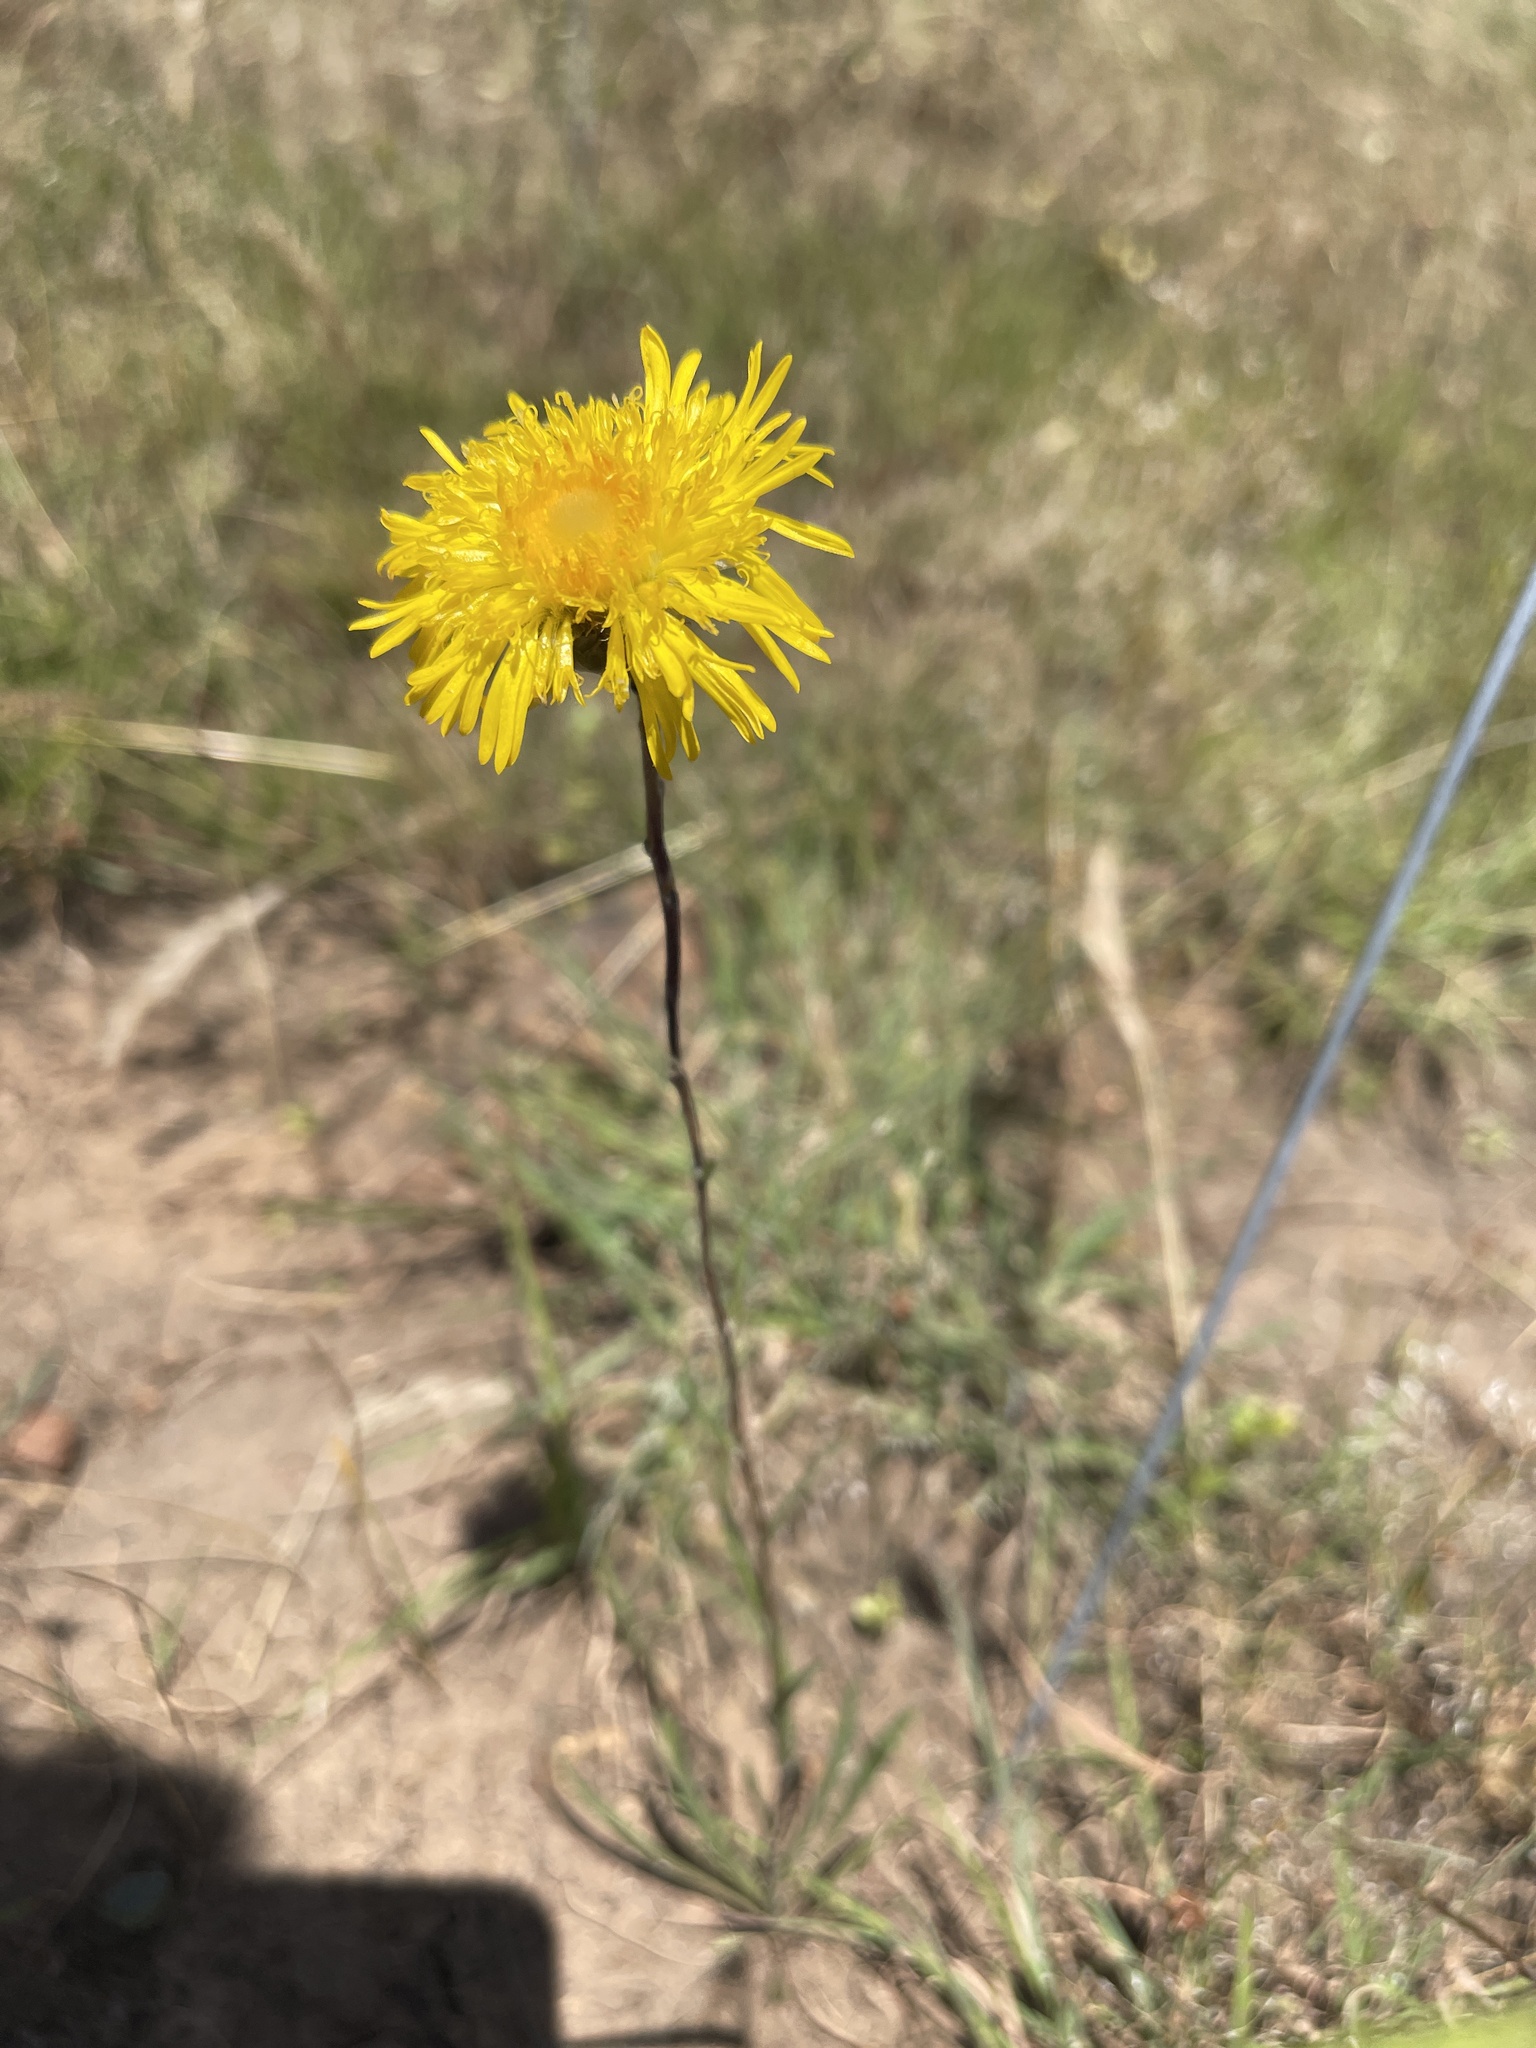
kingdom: Plantae
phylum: Tracheophyta
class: Magnoliopsida
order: Asterales
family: Asteraceae
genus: Podolepis
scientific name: Podolepis linearifolia
